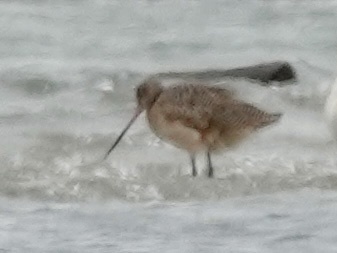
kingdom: Animalia
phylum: Chordata
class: Aves
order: Charadriiformes
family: Scolopacidae
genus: Limosa
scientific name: Limosa fedoa
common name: Marbled godwit
